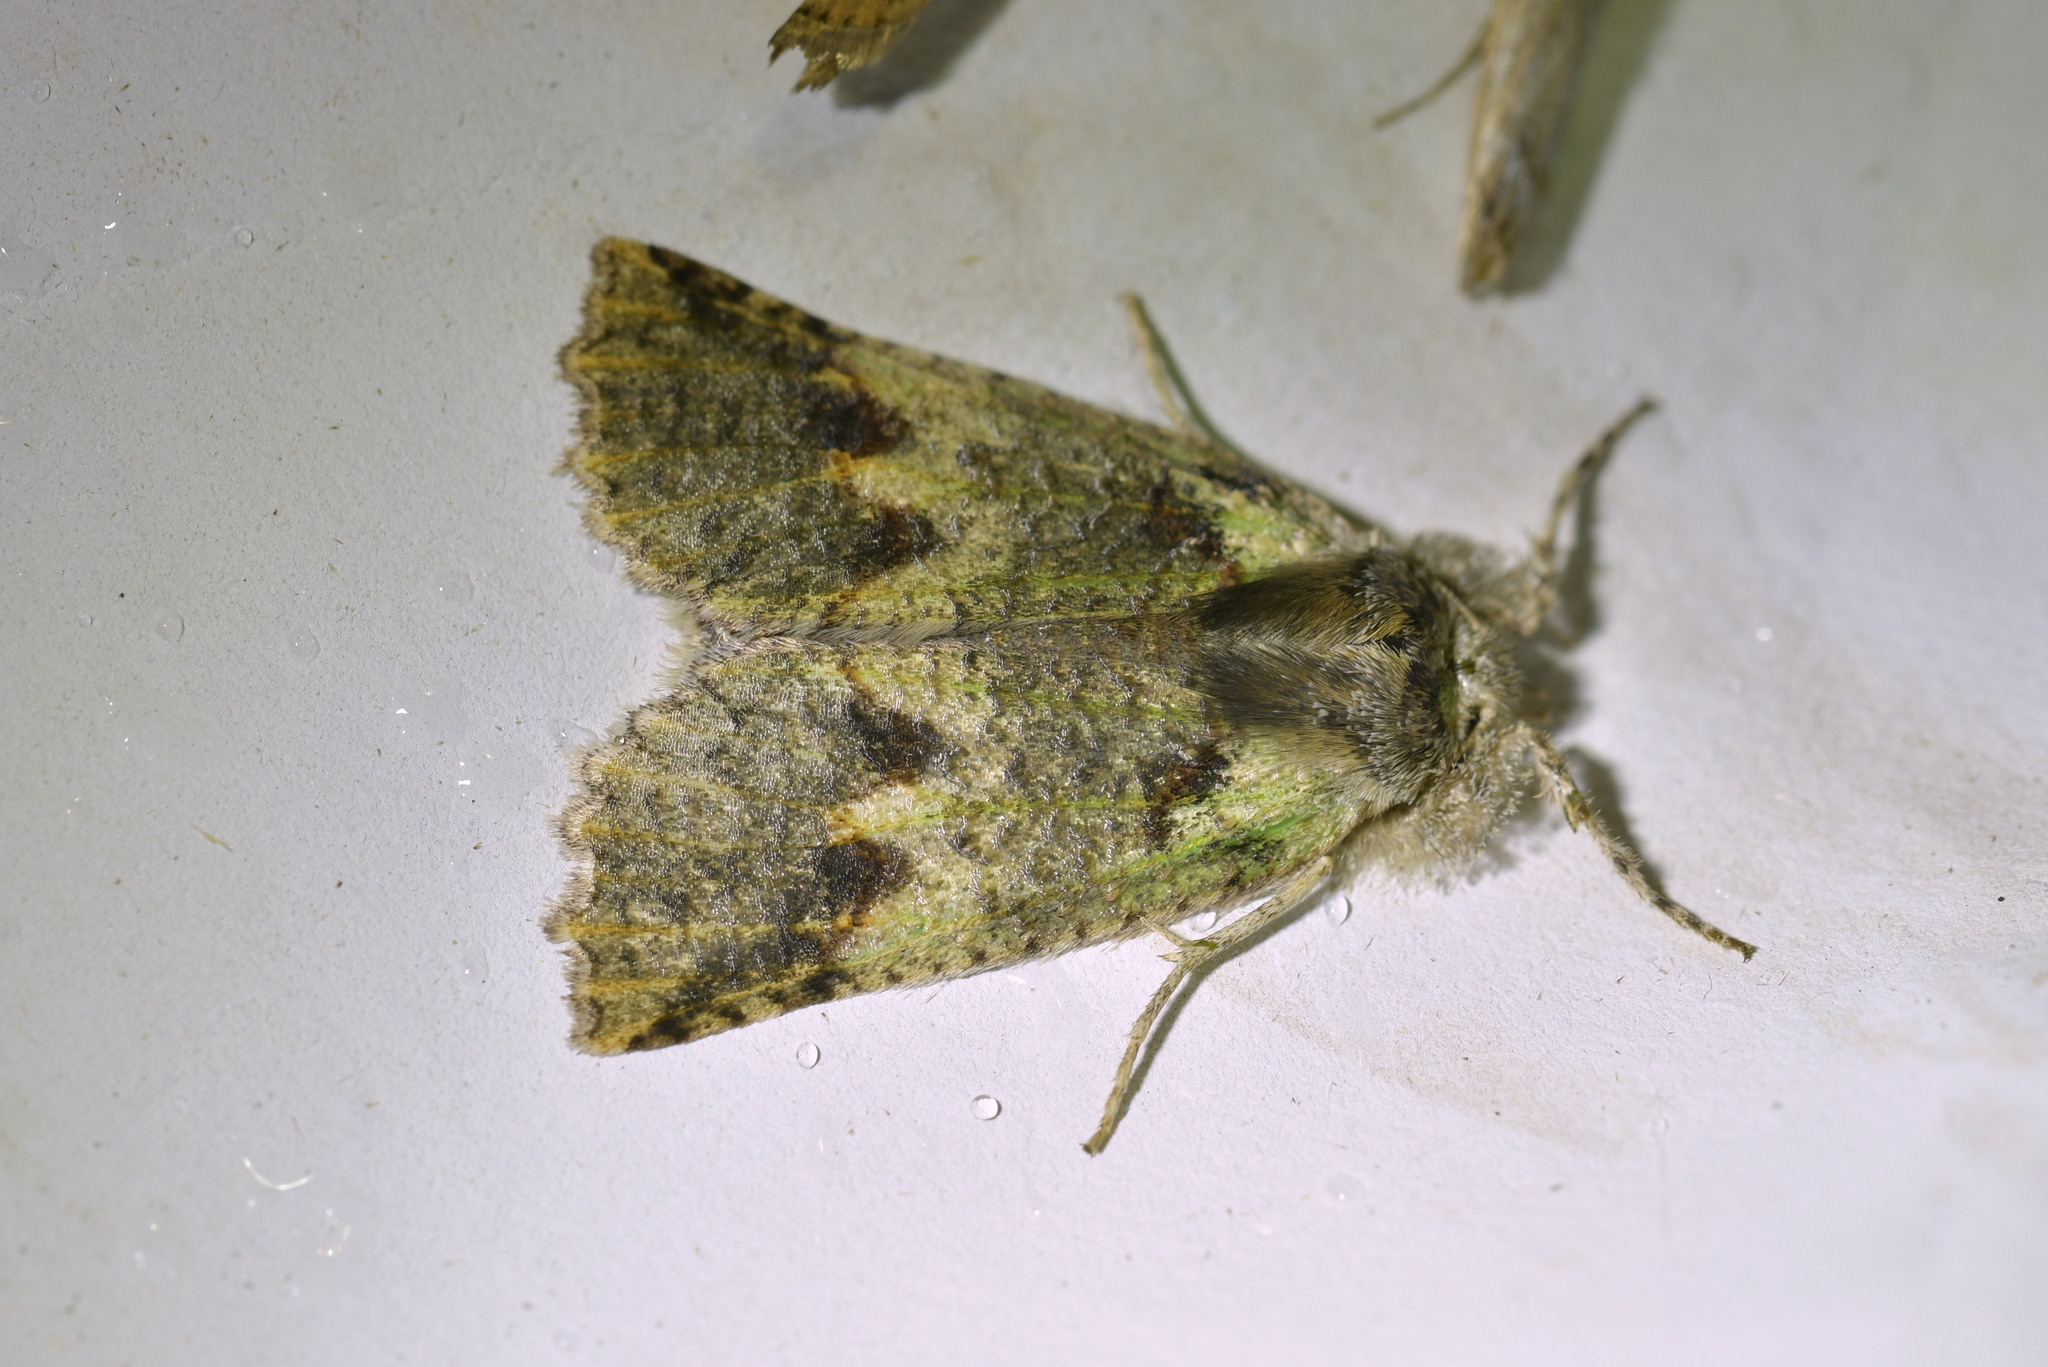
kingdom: Animalia
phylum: Arthropoda
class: Insecta
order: Lepidoptera
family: Geometridae
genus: Declana
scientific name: Declana floccosa
